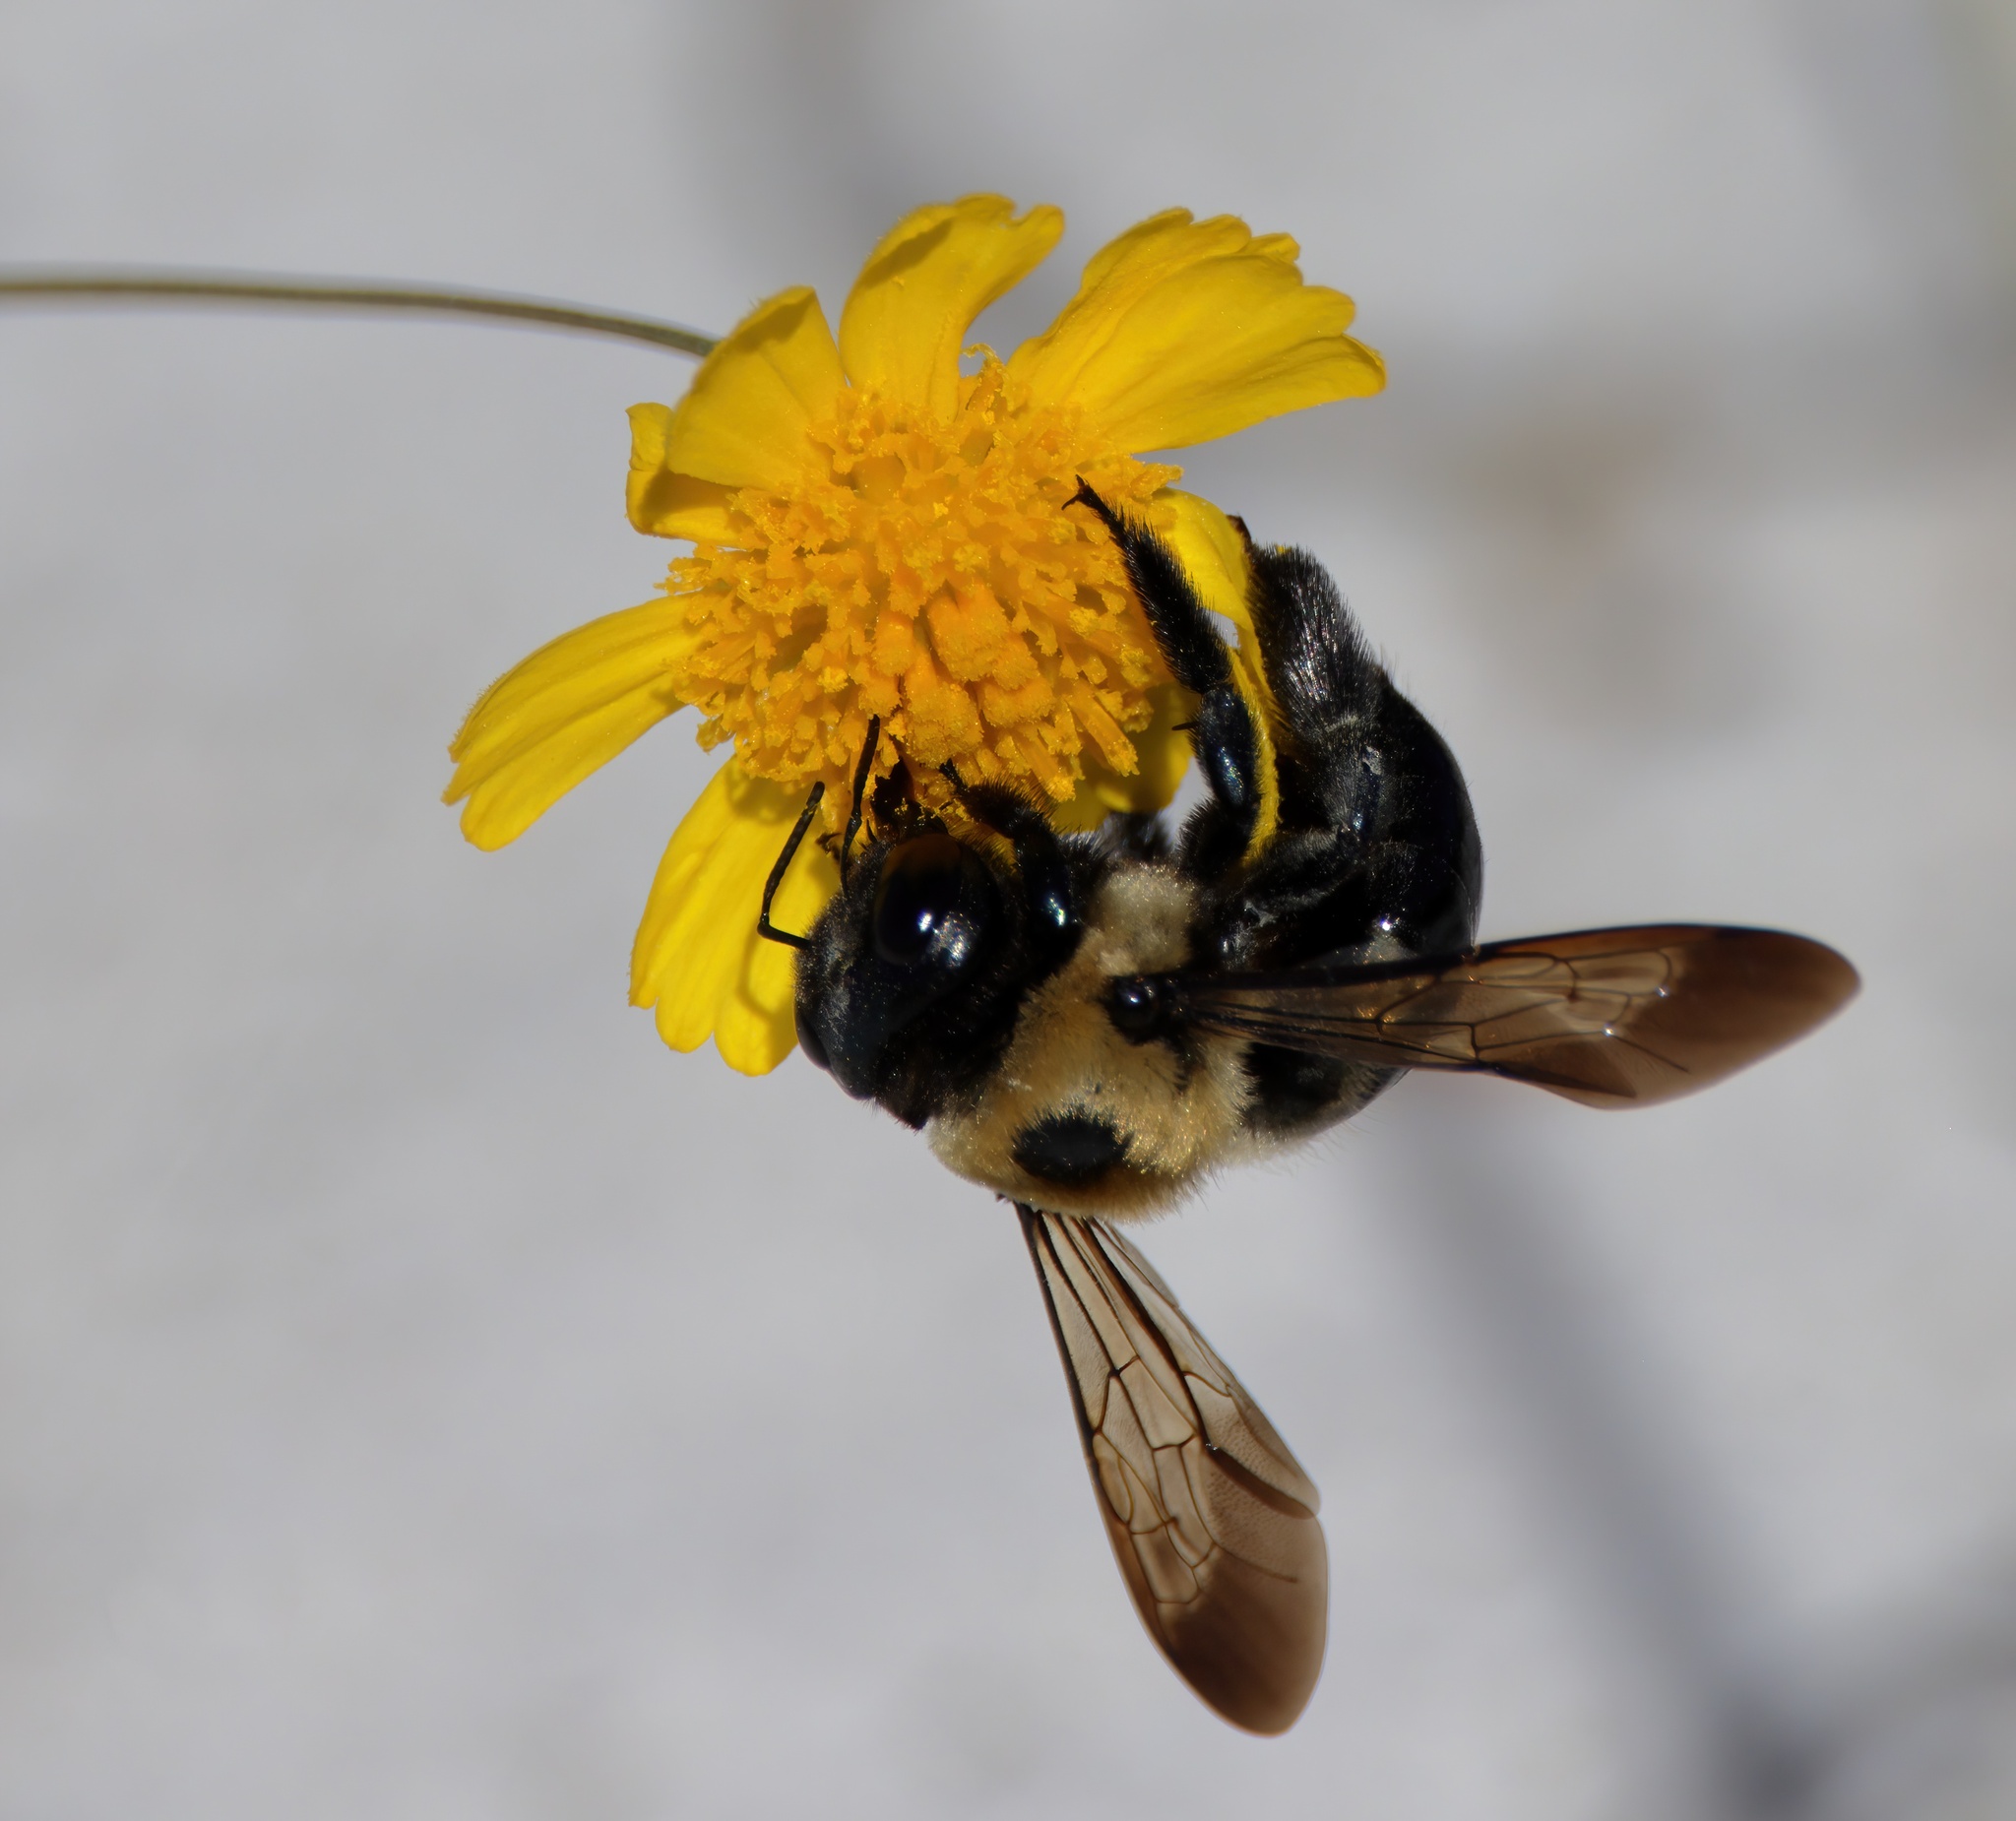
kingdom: Animalia
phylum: Arthropoda
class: Insecta
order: Hymenoptera
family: Apidae
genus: Xylocopa
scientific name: Xylocopa virginica
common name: Carpenter bee
